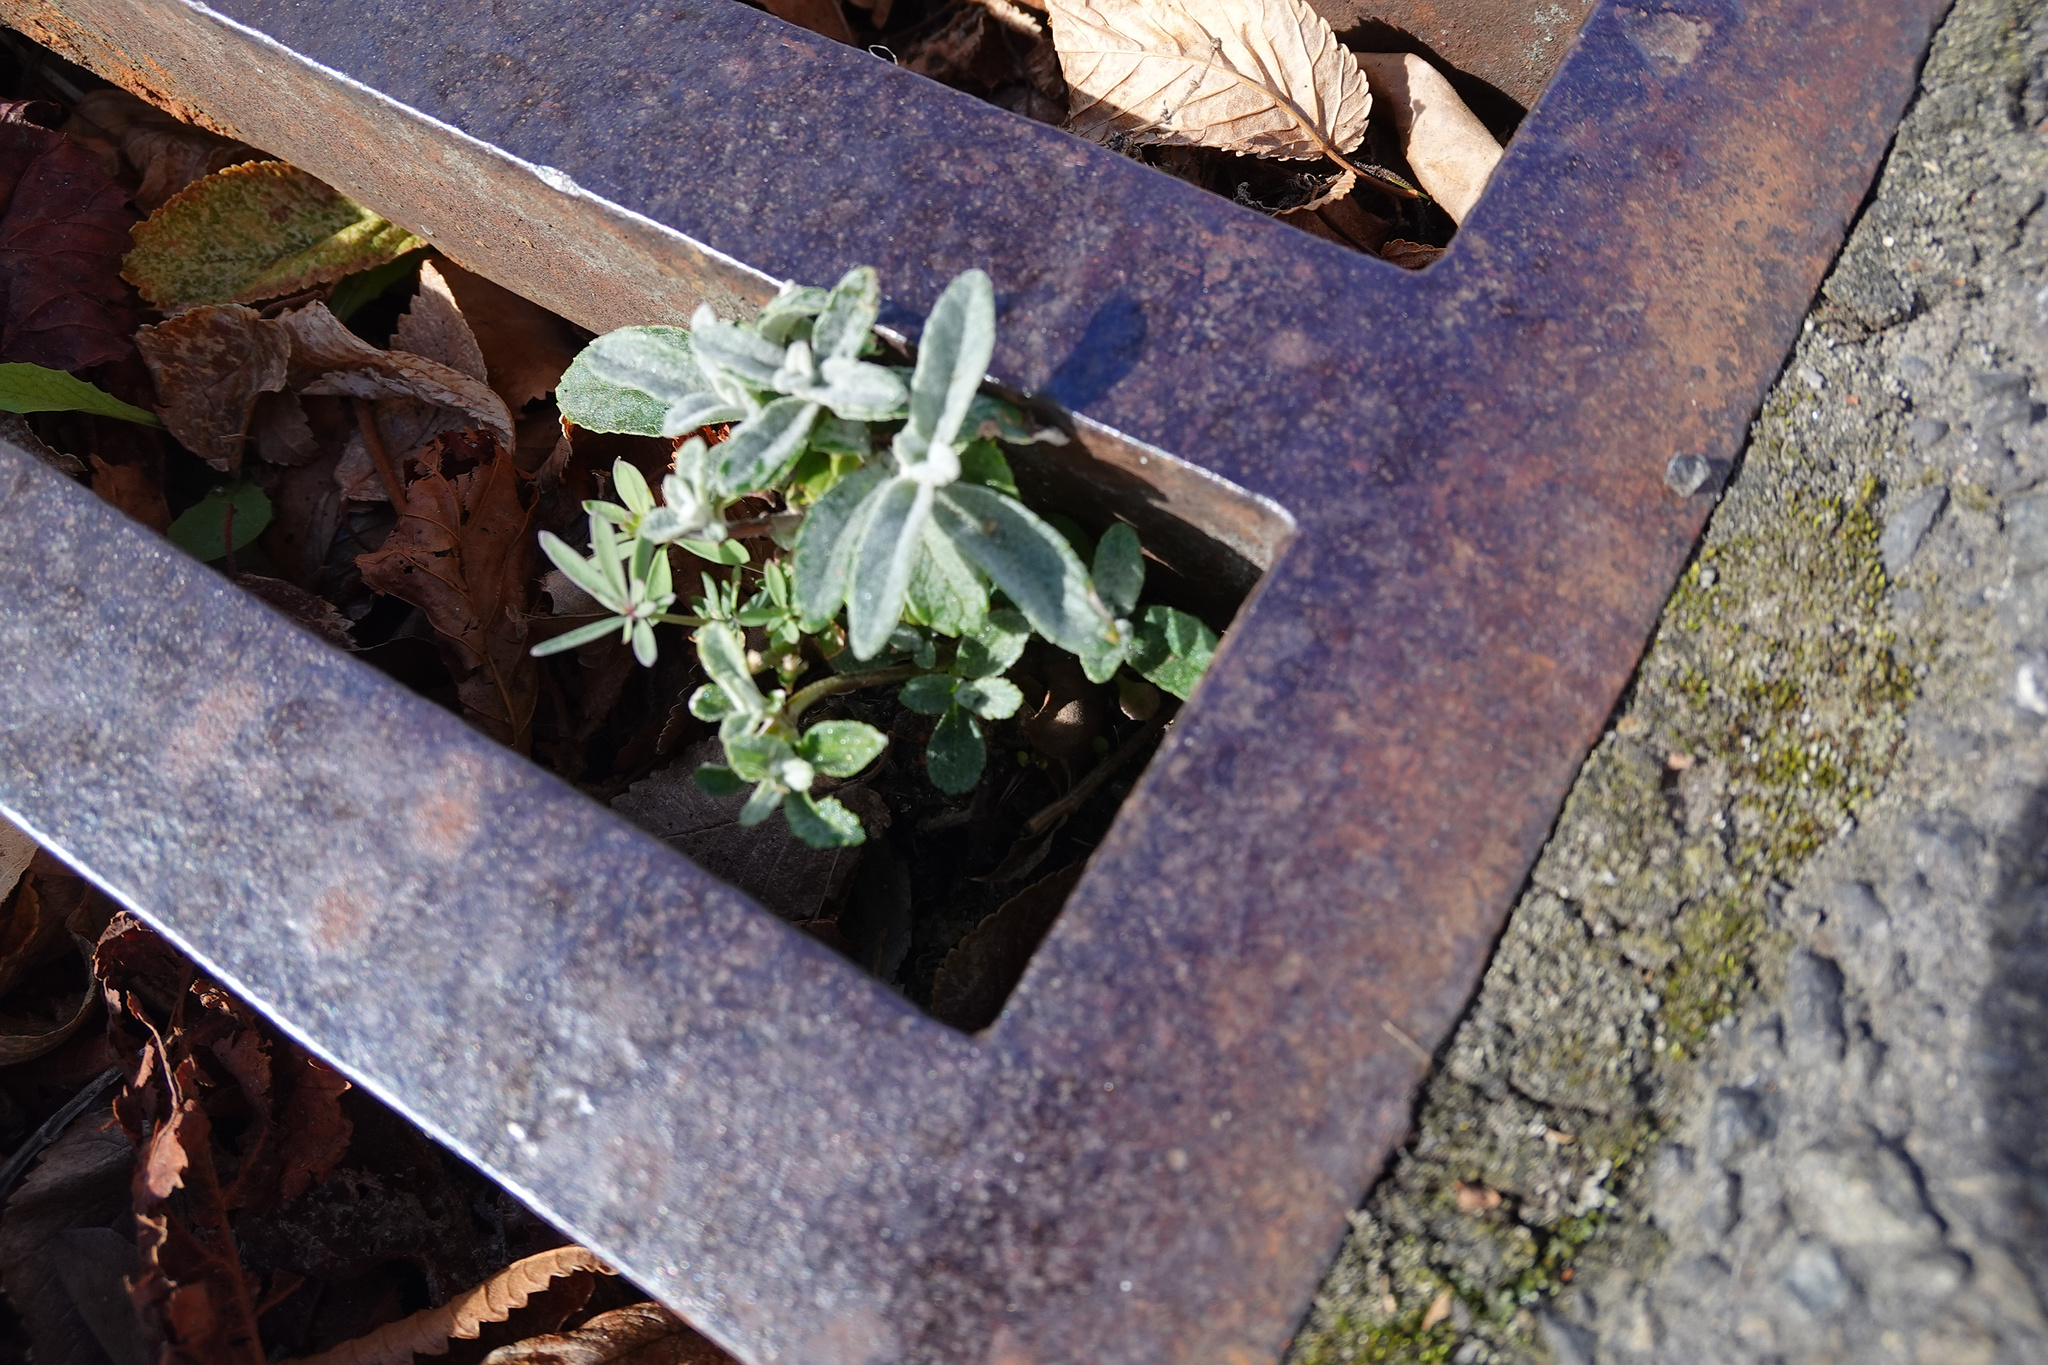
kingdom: Plantae
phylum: Tracheophyta
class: Magnoliopsida
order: Lamiales
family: Scrophulariaceae
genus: Buddleja
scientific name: Buddleja davidii
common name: Butterfly-bush
